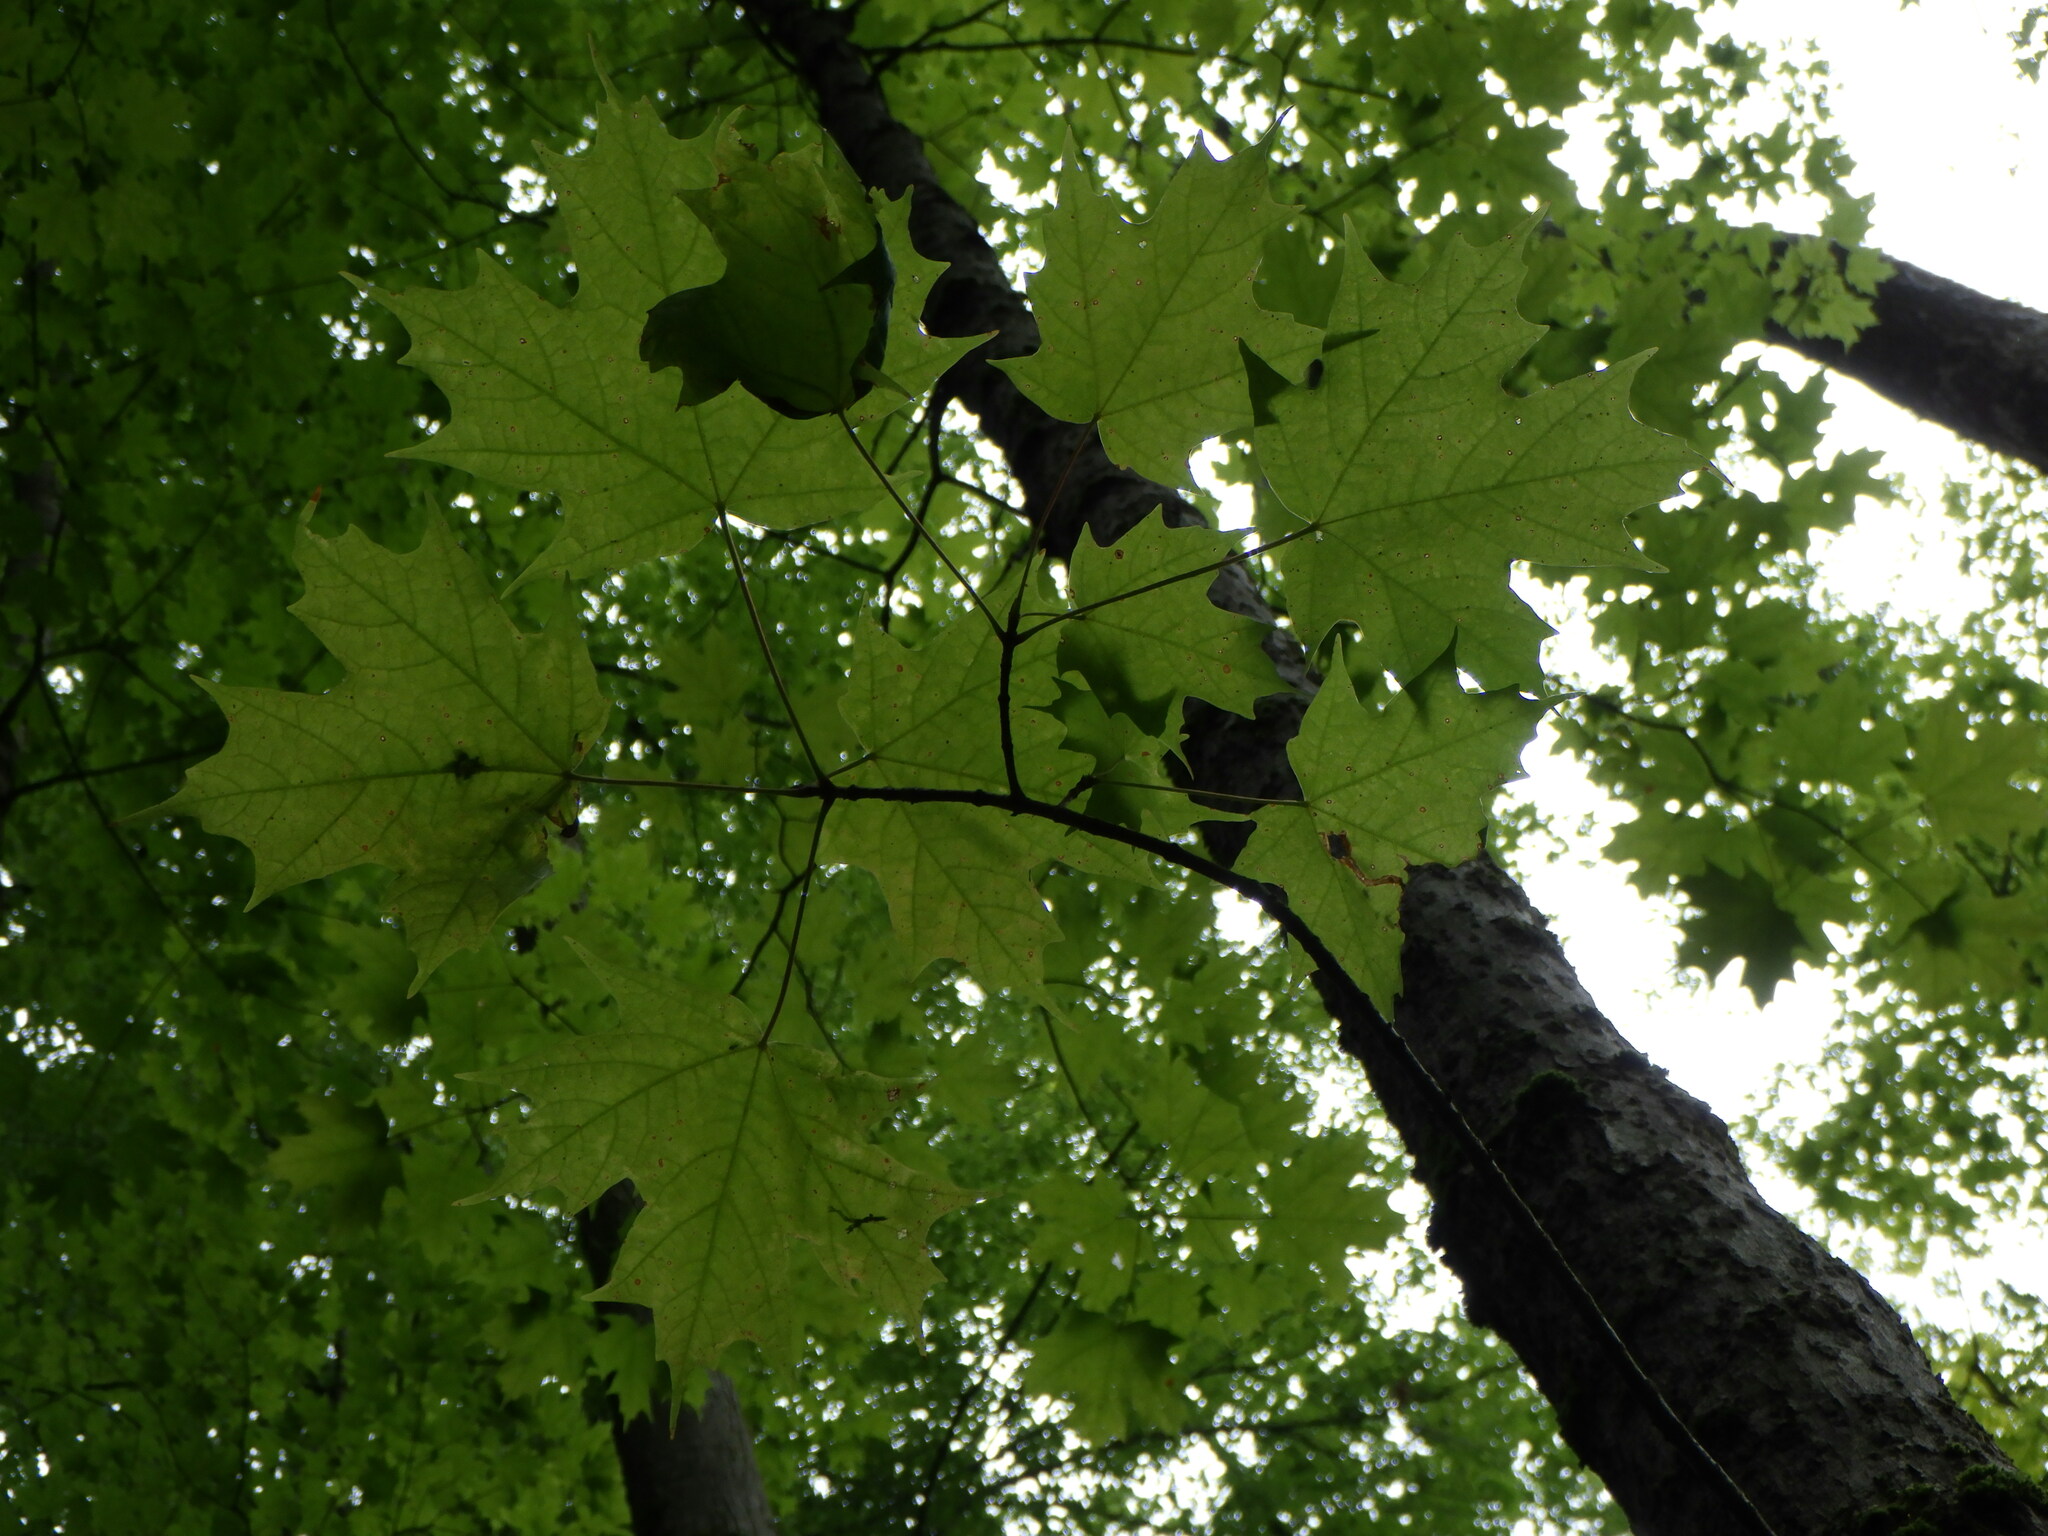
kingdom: Plantae
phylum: Tracheophyta
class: Magnoliopsida
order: Sapindales
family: Sapindaceae
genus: Acer
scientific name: Acer saccharum
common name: Sugar maple
